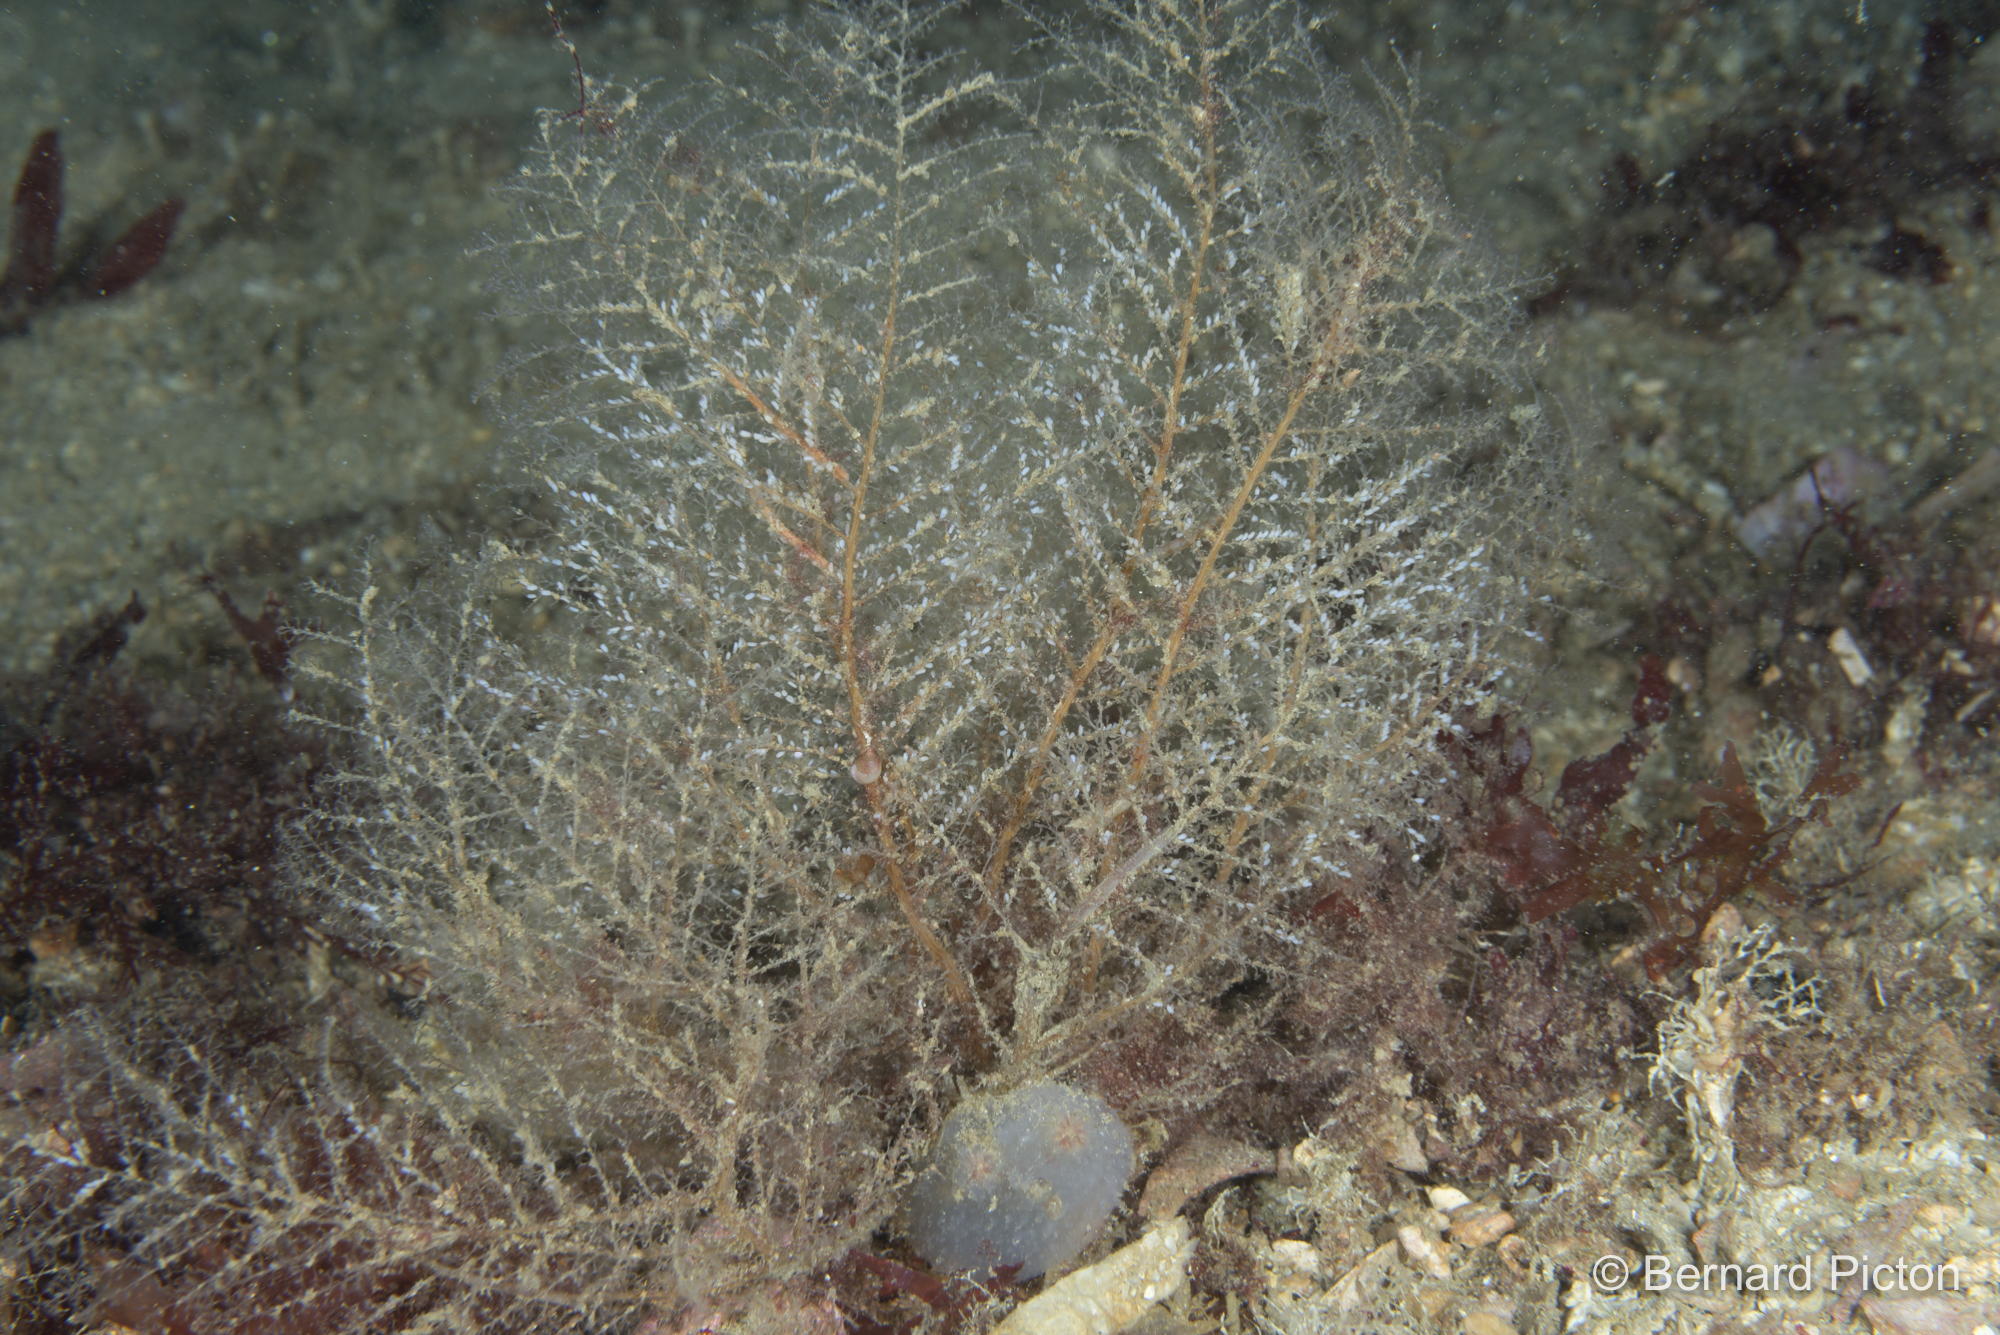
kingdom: Animalia
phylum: Cnidaria
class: Hydrozoa
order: Leptothecata
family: Haleciidae
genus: Halecium
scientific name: Halecium halecinum
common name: Herringbone hydroid
